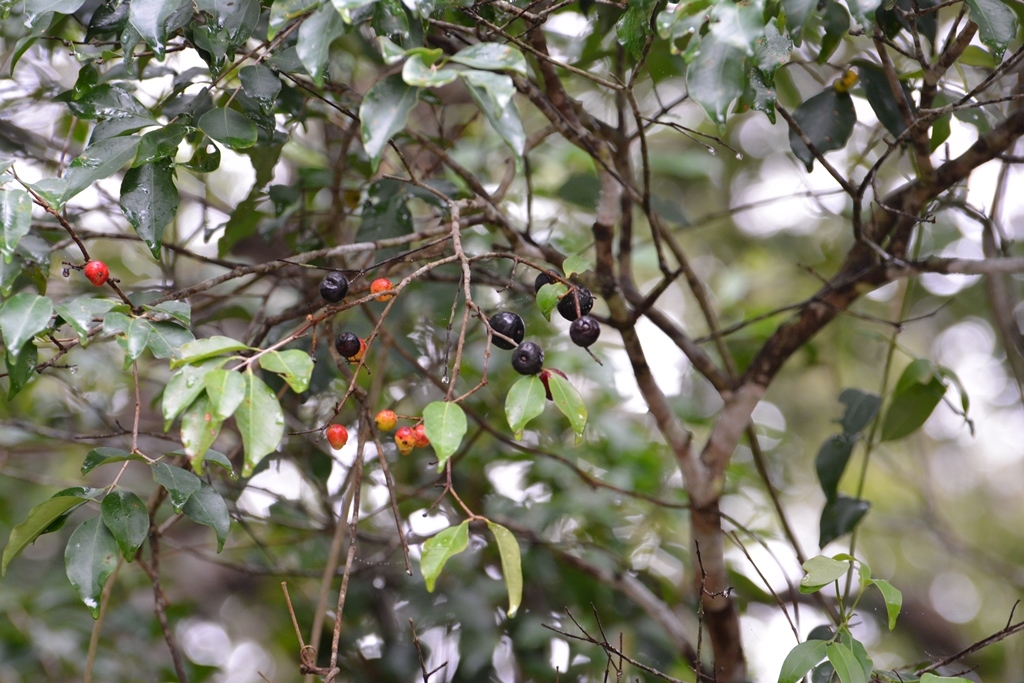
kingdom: Plantae
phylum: Tracheophyta
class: Magnoliopsida
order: Myrtales
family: Myrtaceae
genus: Eugenia
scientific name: Eugenia capuli
